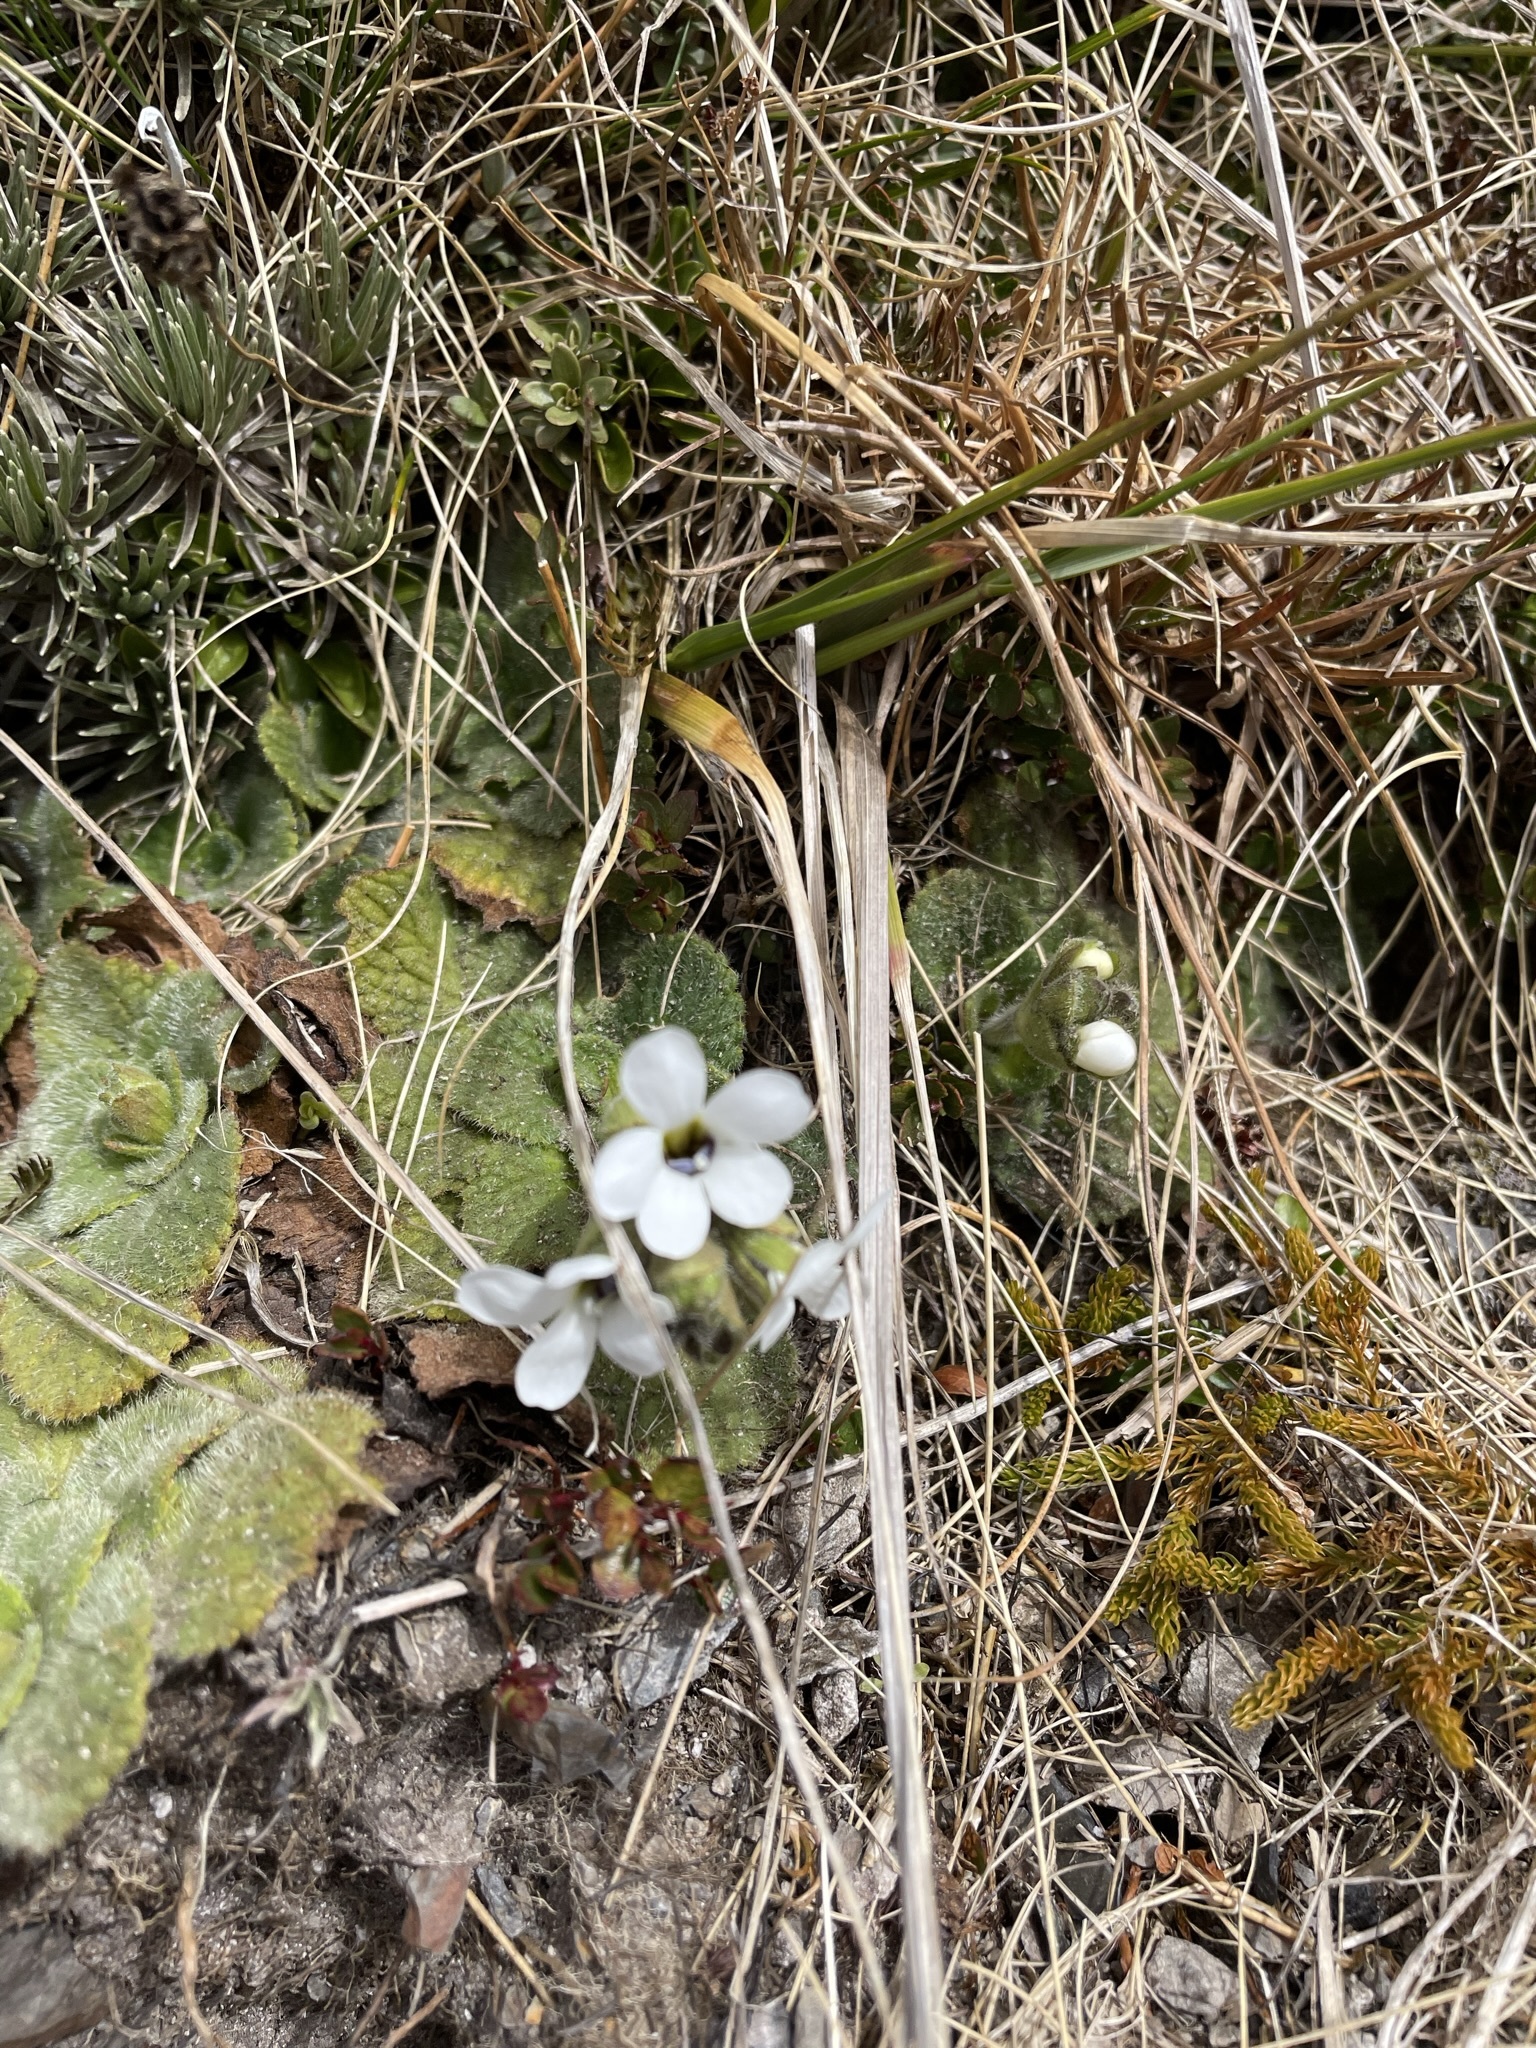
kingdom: Plantae
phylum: Tracheophyta
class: Magnoliopsida
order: Lamiales
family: Plantaginaceae
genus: Ourisia
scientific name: Ourisia simpsonii
